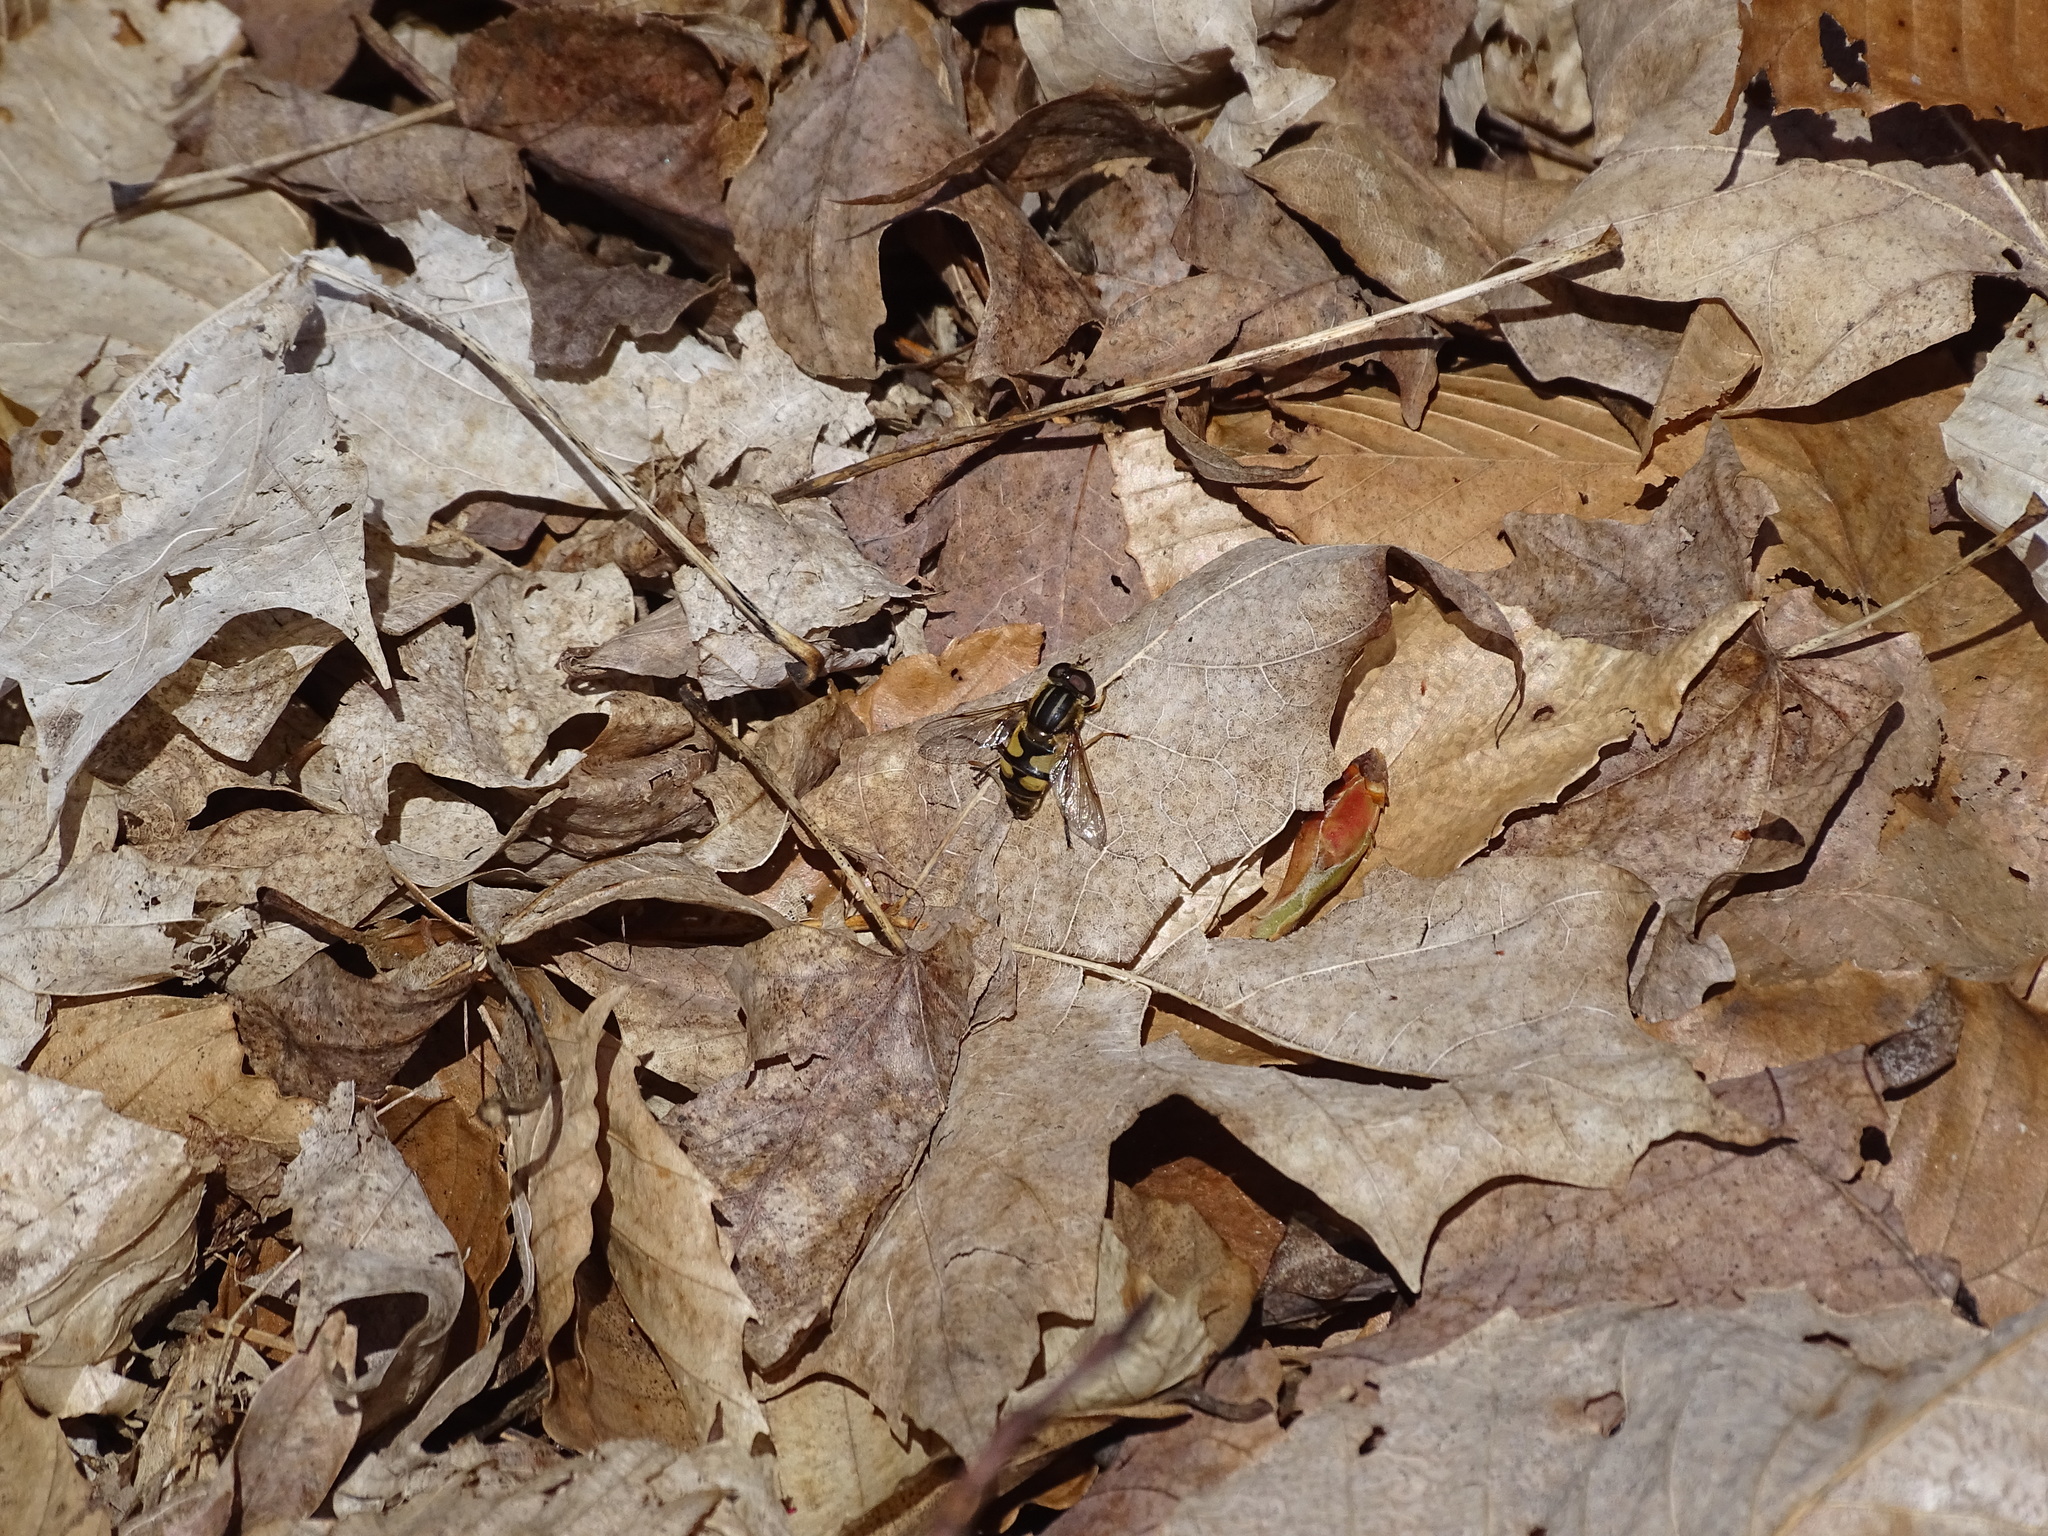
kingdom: Animalia
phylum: Arthropoda
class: Insecta
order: Diptera
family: Syrphidae
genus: Helophilus
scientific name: Helophilus fasciatus
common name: Narrow-headed marsh fly
